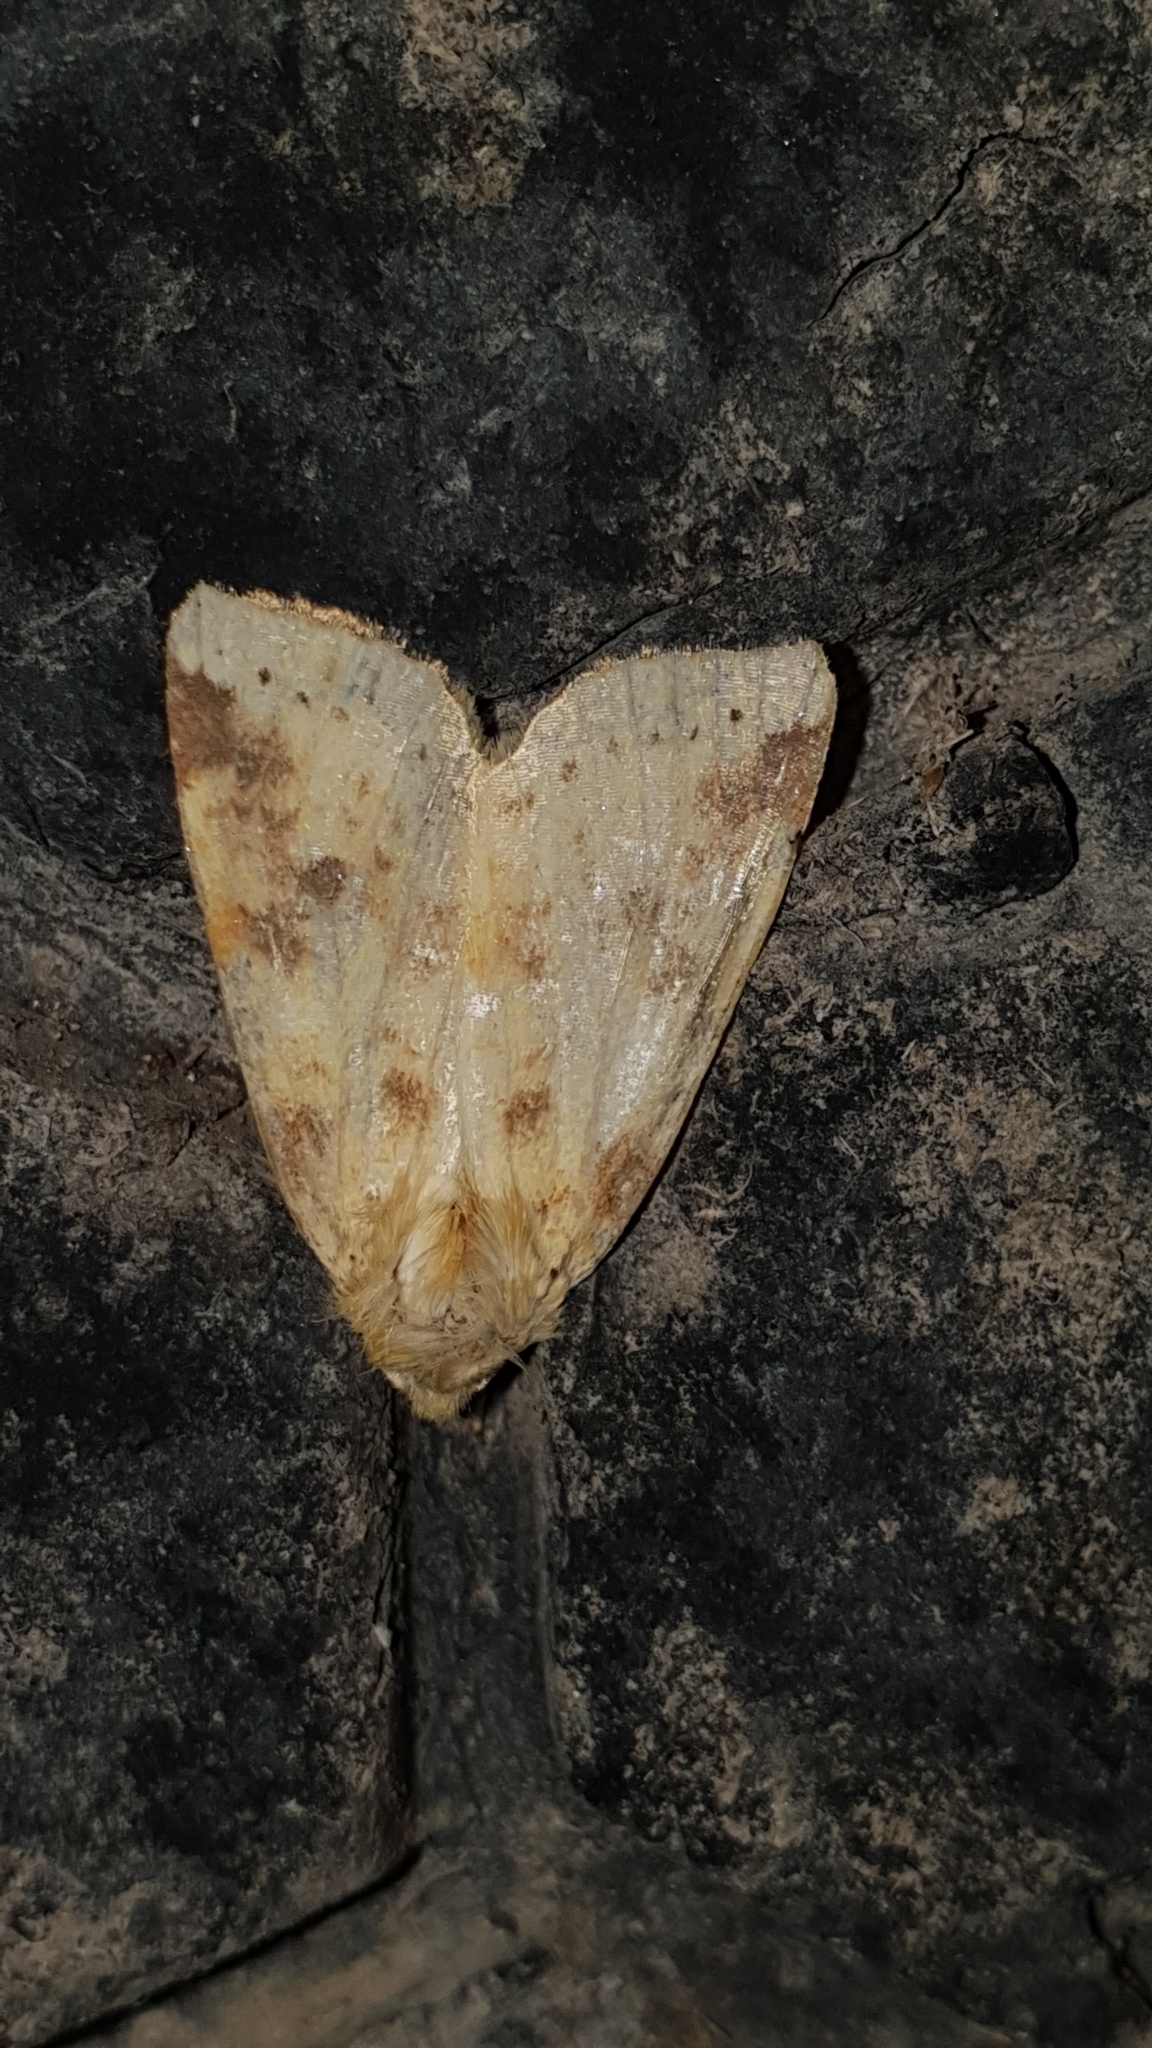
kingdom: Animalia
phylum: Arthropoda
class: Insecta
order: Lepidoptera
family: Noctuidae
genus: Xanthia
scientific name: Xanthia icteritia
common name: The sallow
